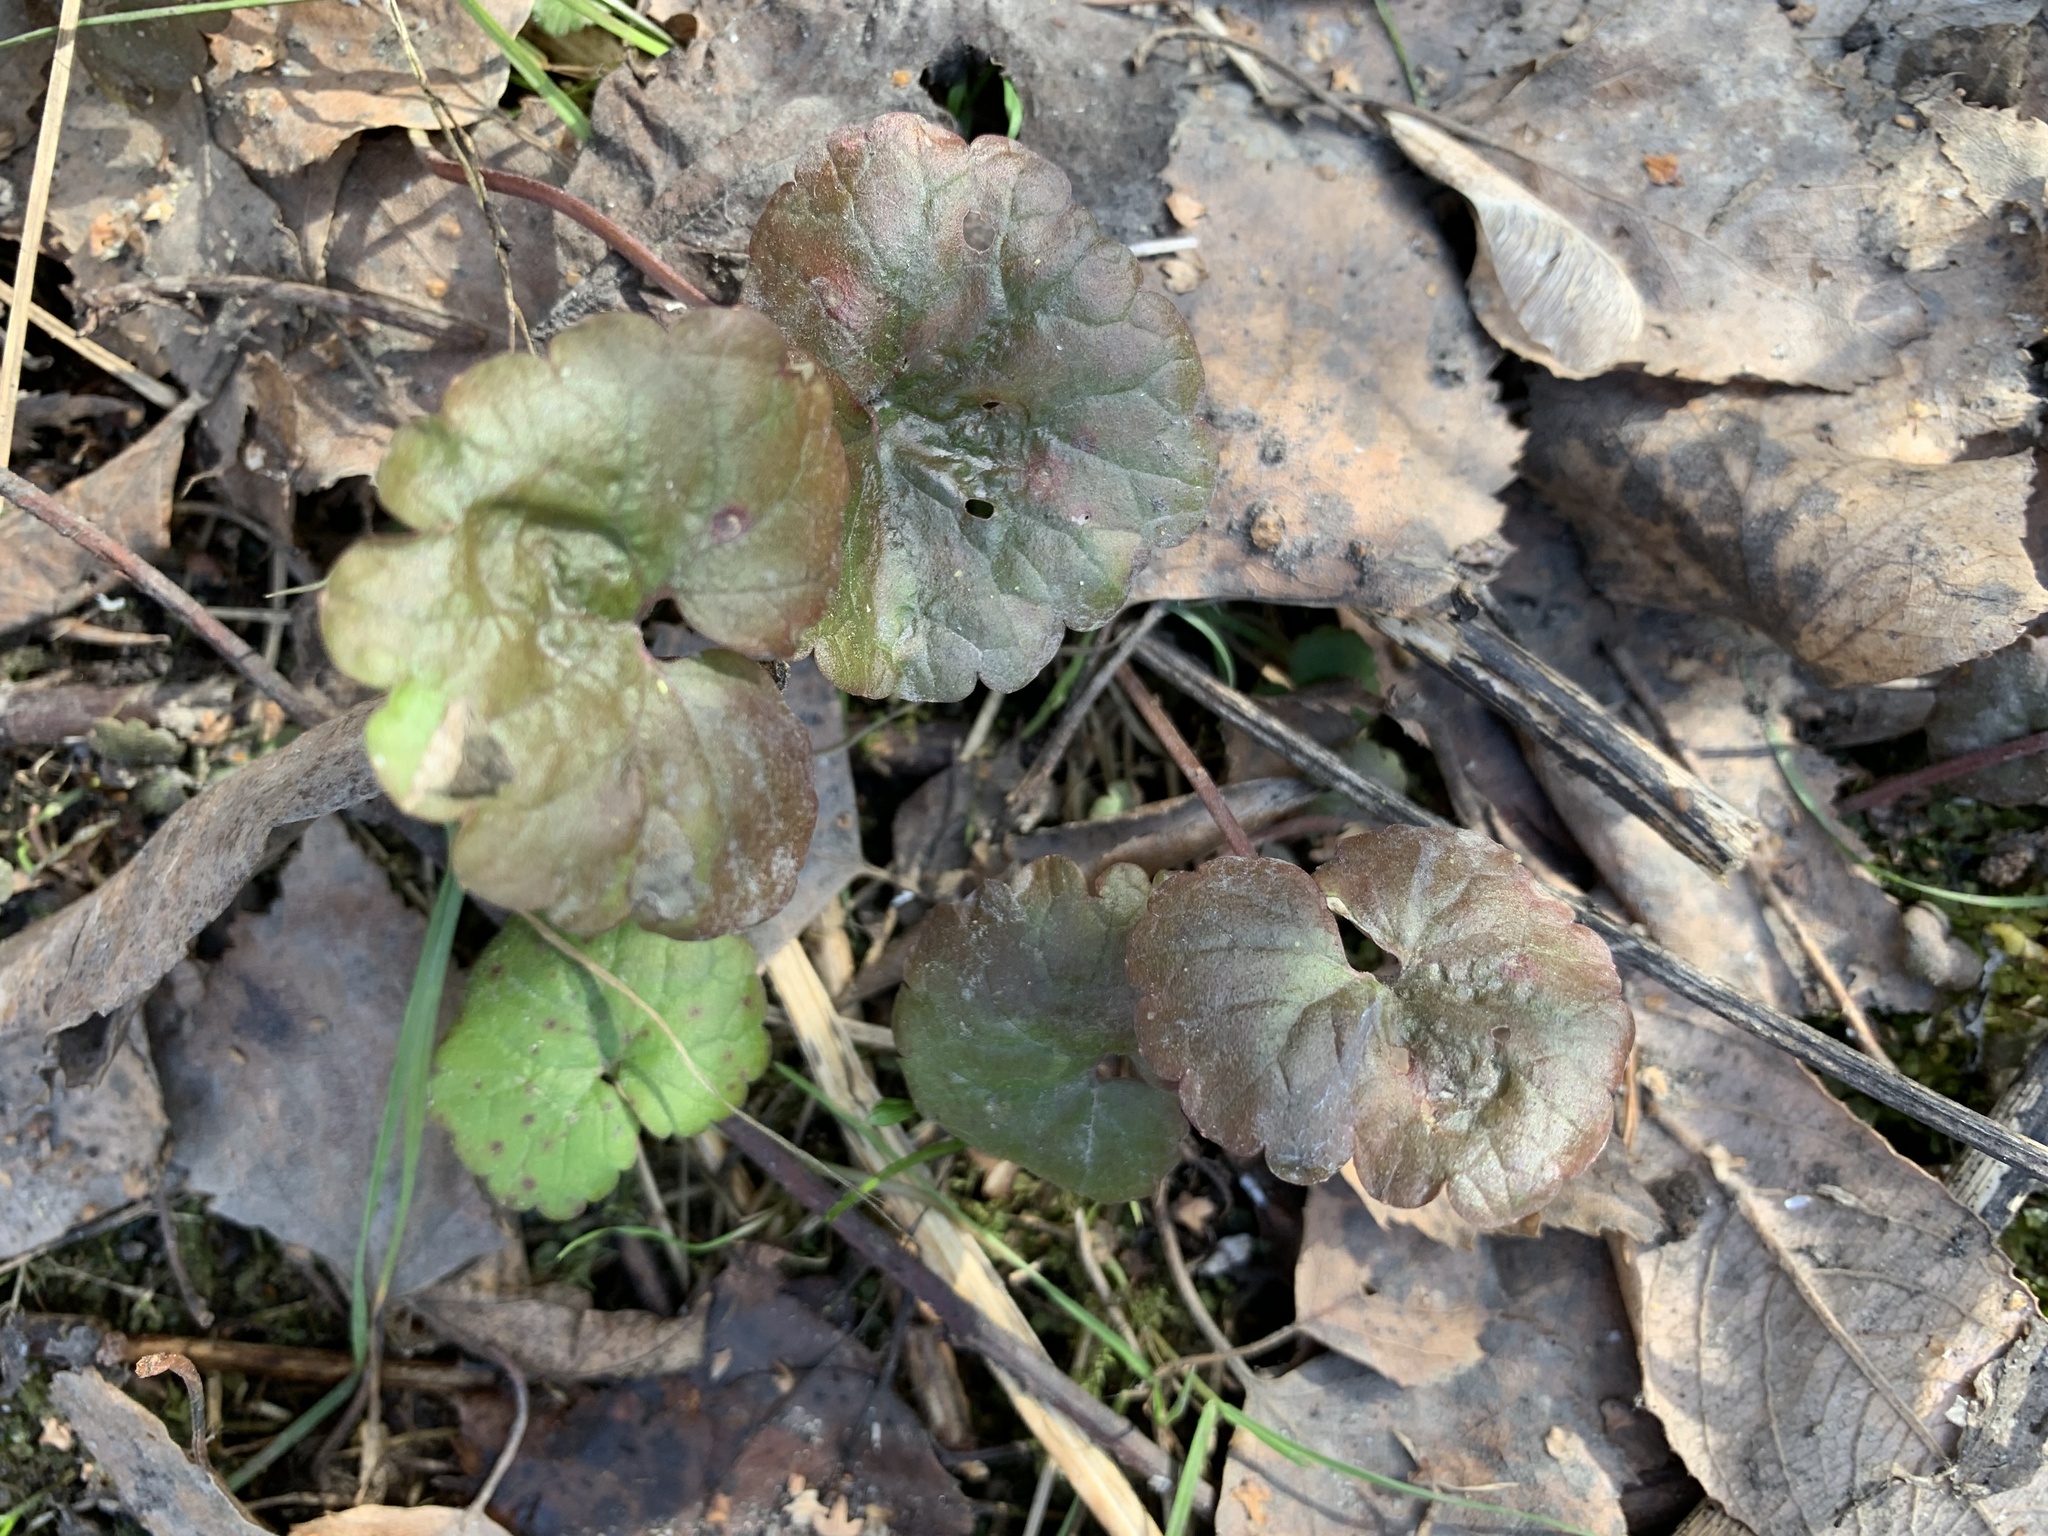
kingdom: Plantae
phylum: Tracheophyta
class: Magnoliopsida
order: Lamiales
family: Lamiaceae
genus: Glechoma
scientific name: Glechoma hederacea
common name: Ground ivy
